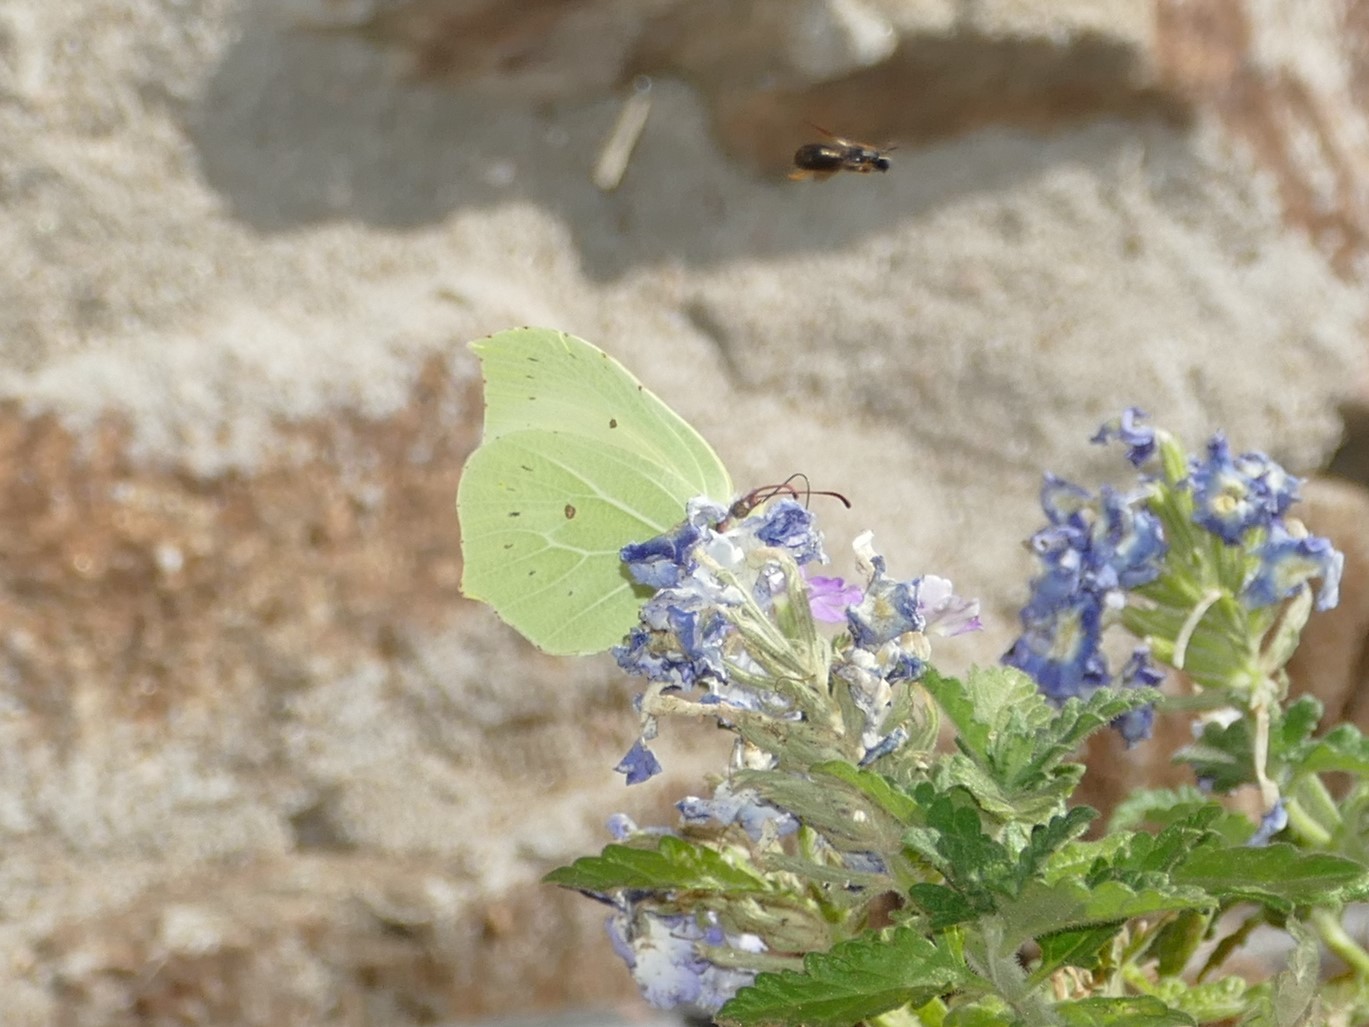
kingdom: Animalia
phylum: Arthropoda
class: Insecta
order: Lepidoptera
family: Pieridae
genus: Gonepteryx
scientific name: Gonepteryx rhamni
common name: Brimstone
